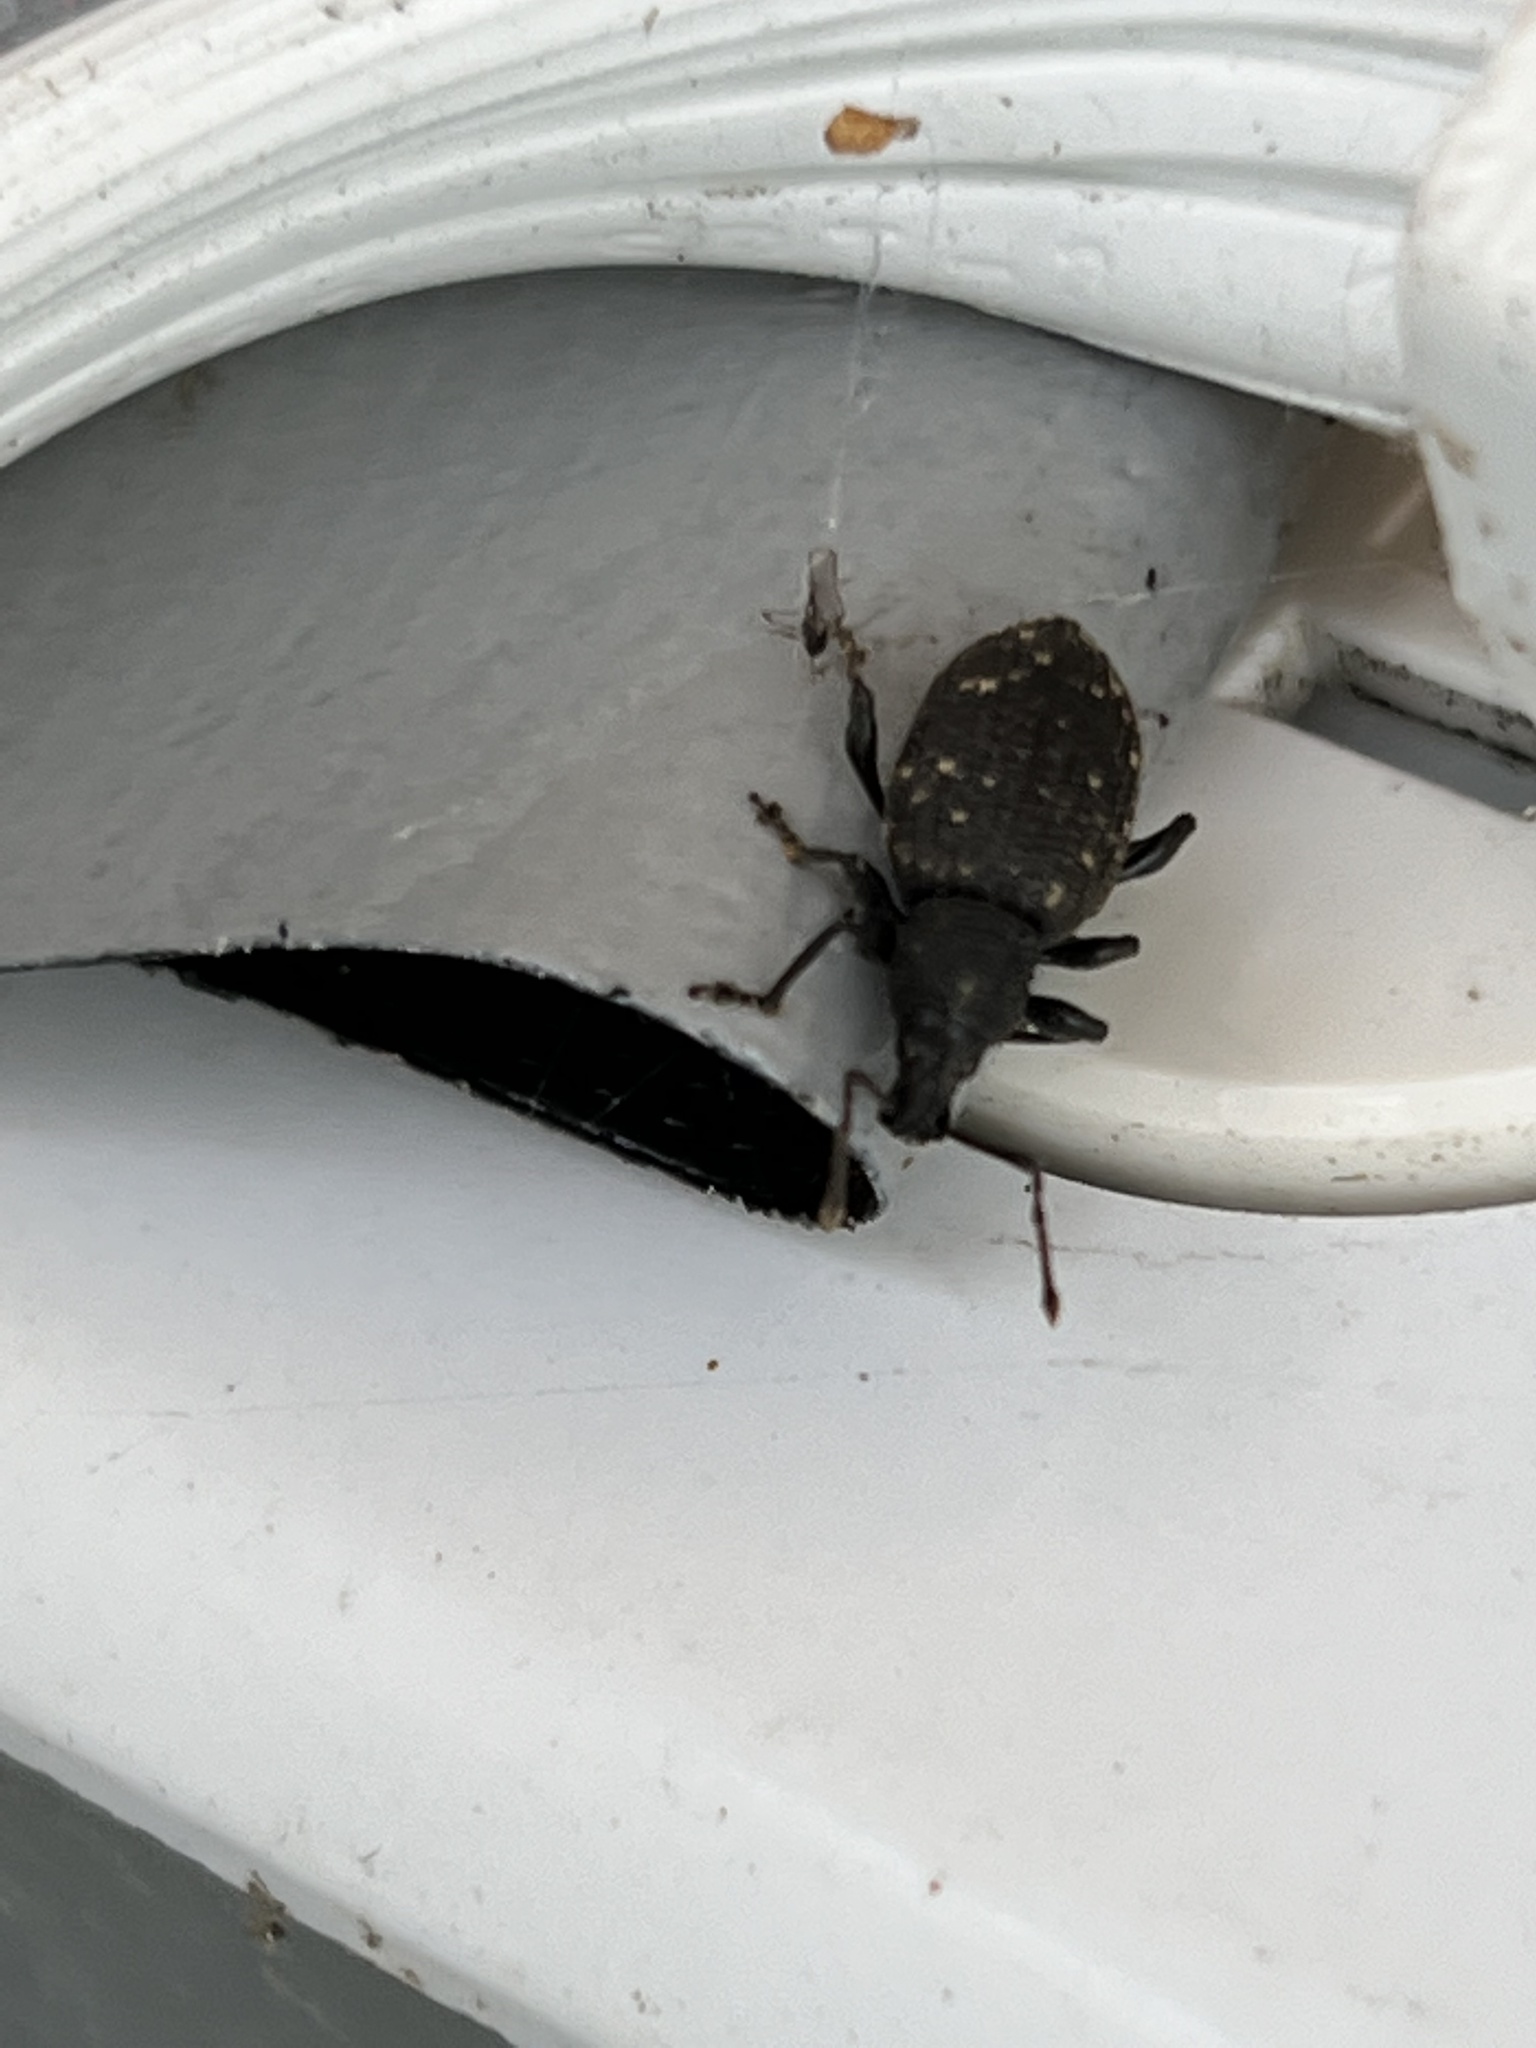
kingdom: Animalia
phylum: Arthropoda
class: Insecta
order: Coleoptera
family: Curculionidae
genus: Otiorhynchus
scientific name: Otiorhynchus sulcatus
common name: Black vine weevil
